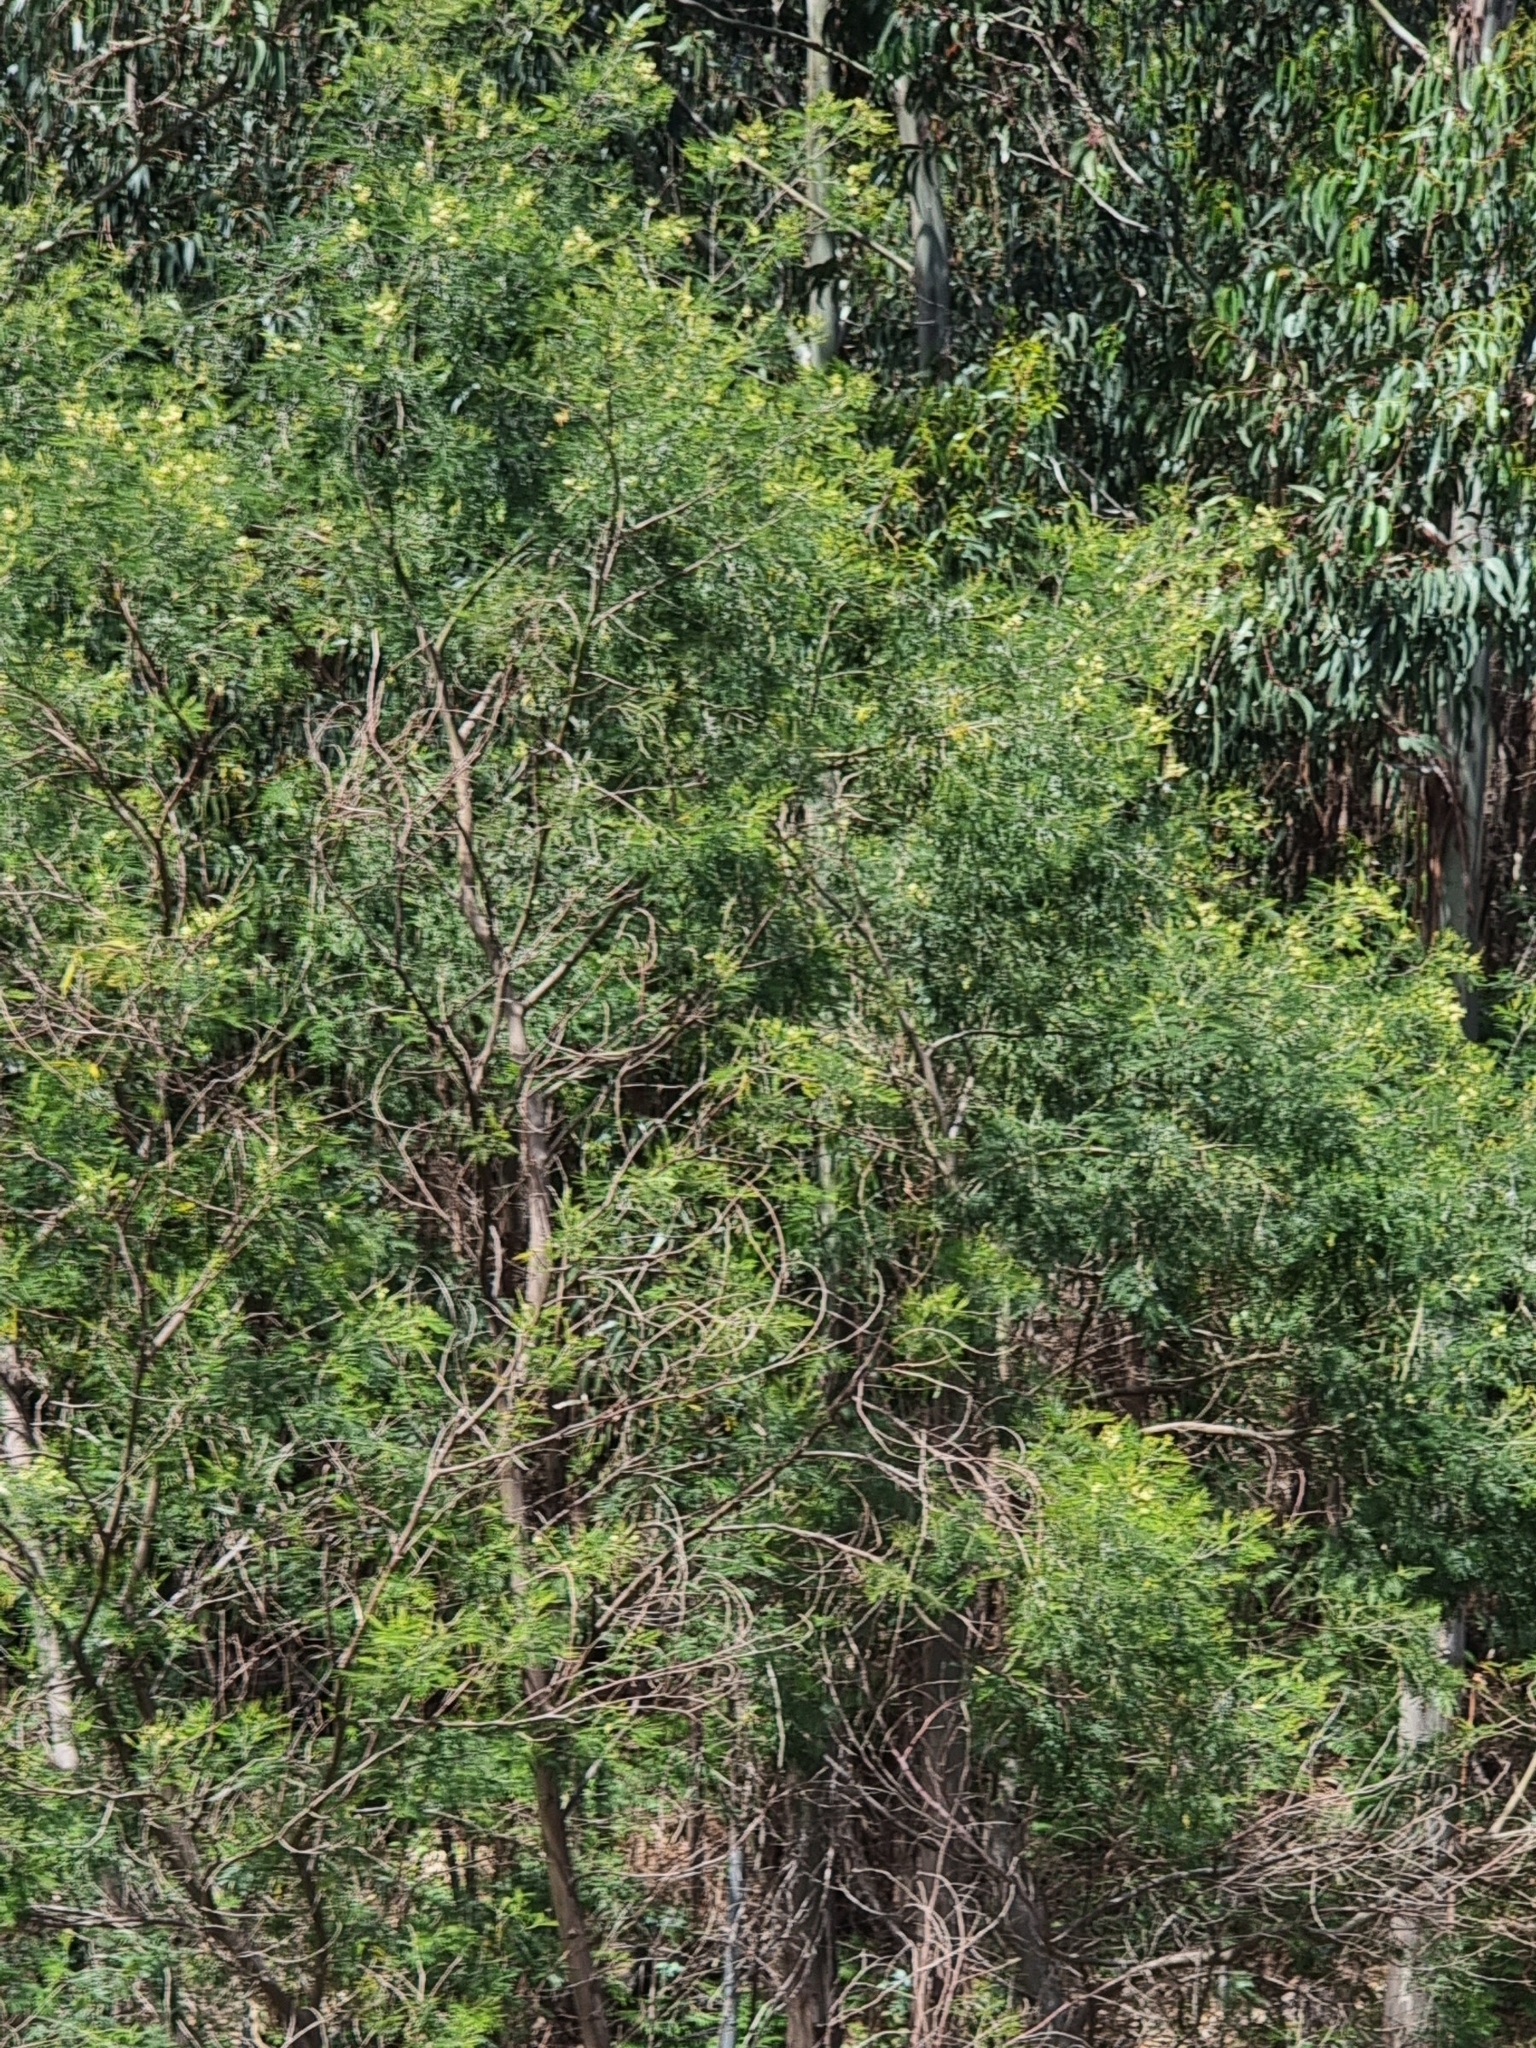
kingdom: Plantae
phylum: Tracheophyta
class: Magnoliopsida
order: Fabales
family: Fabaceae
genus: Acacia
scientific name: Acacia mearnsii
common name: Black wattle
